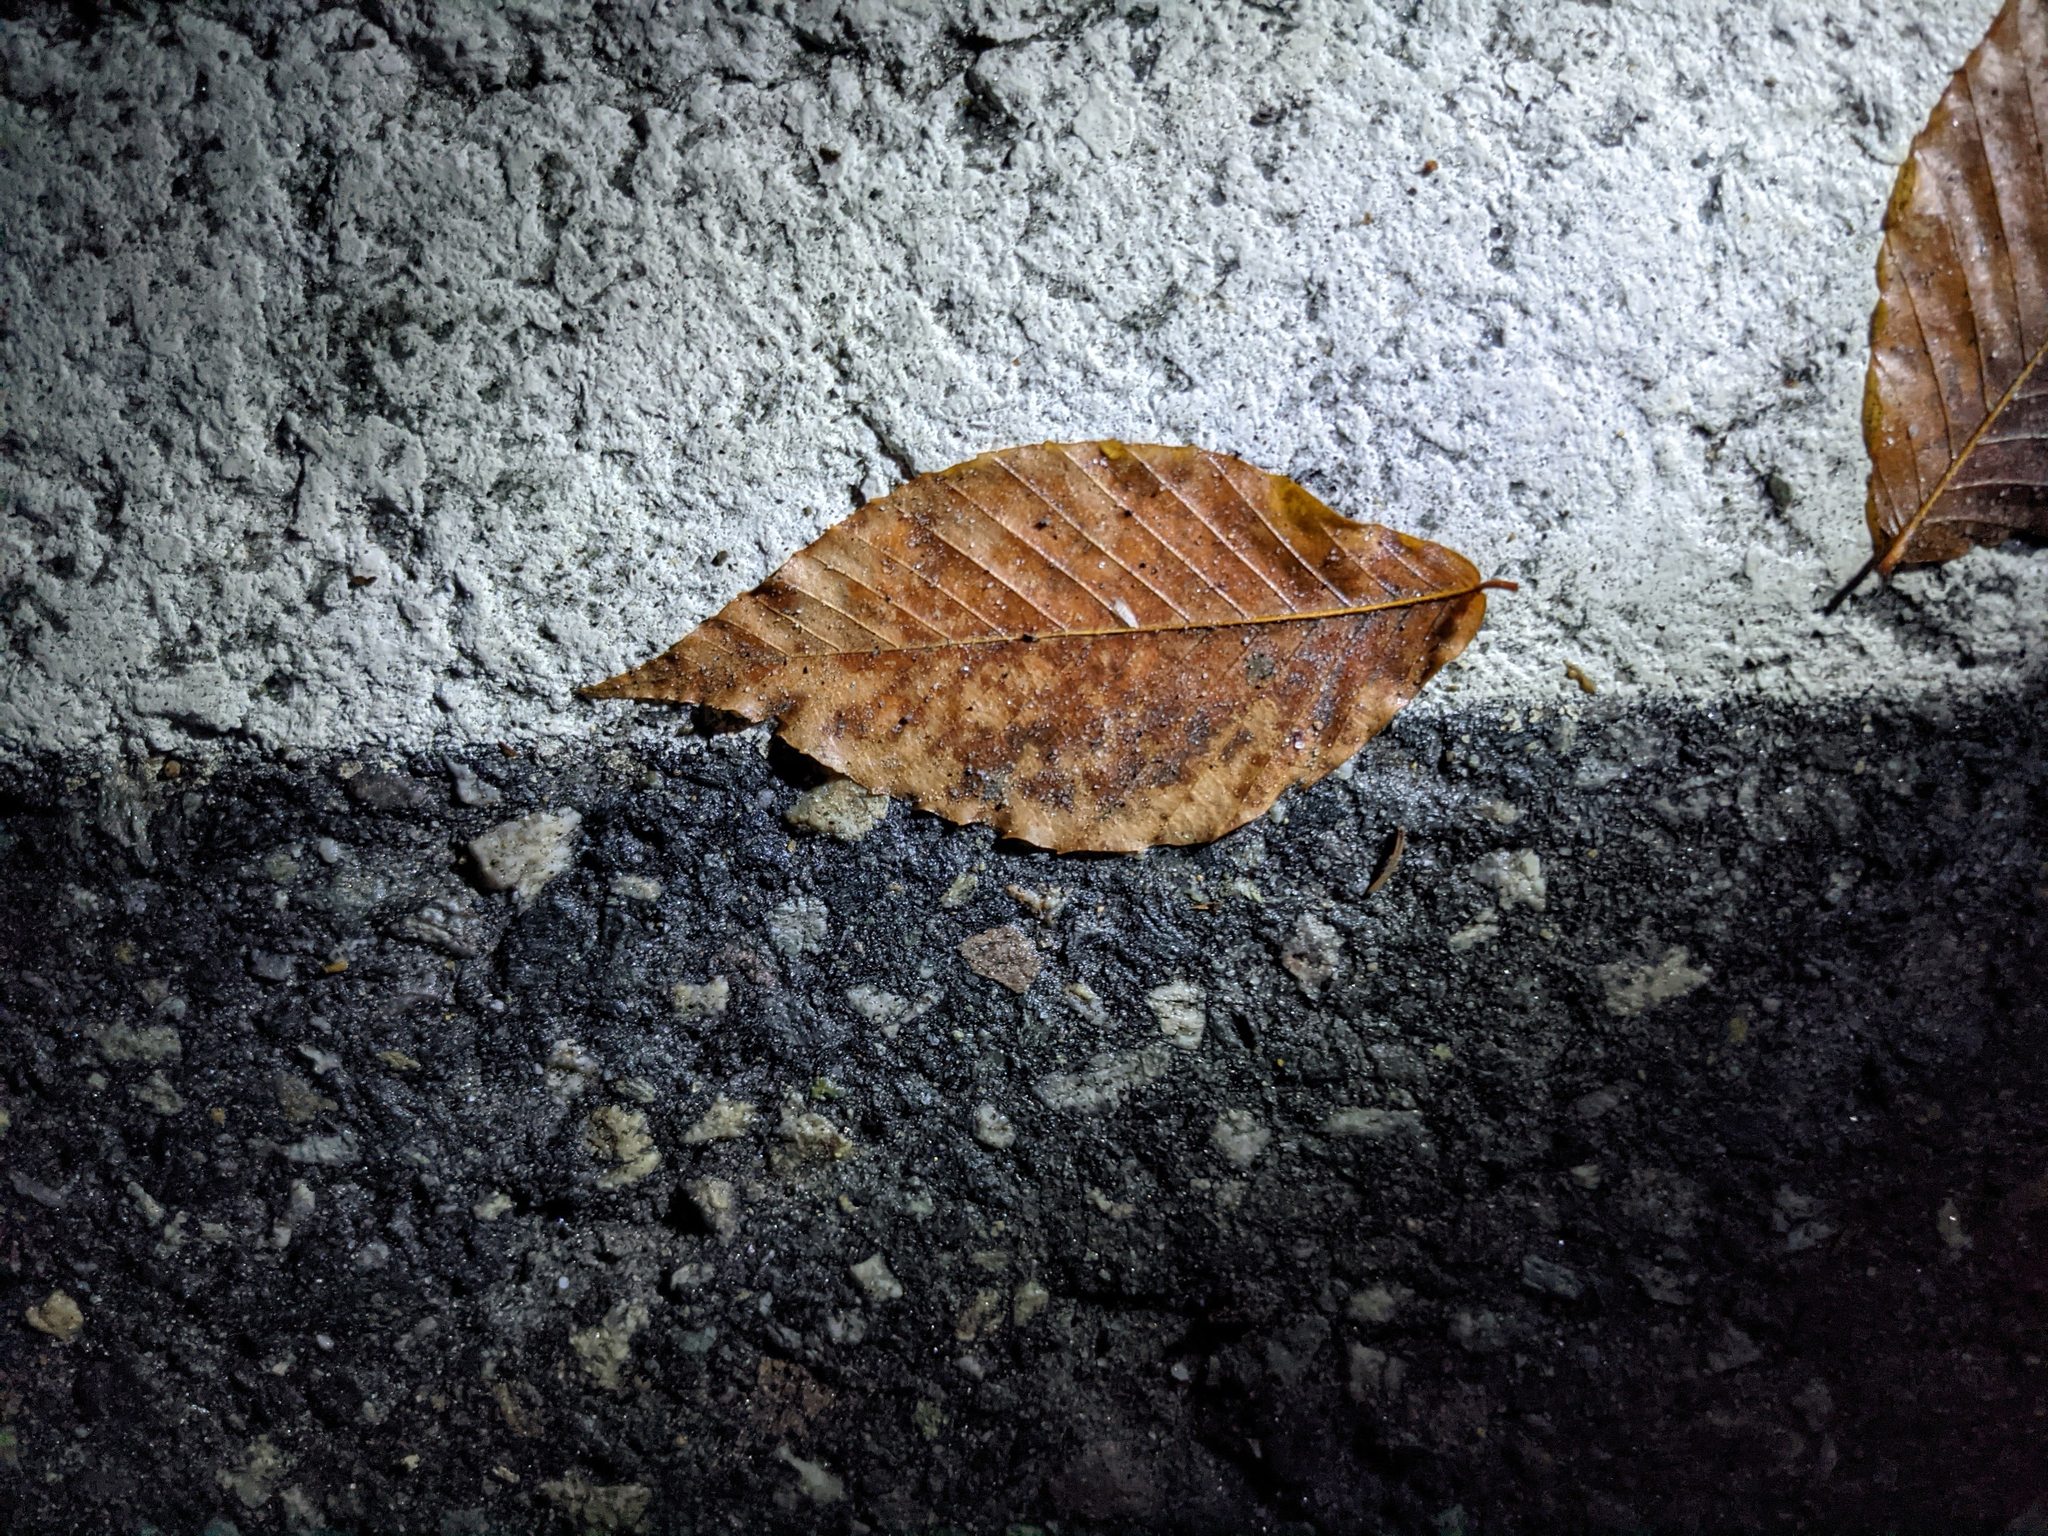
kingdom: Plantae
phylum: Tracheophyta
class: Magnoliopsida
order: Fagales
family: Fagaceae
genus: Fagus
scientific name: Fagus grandifolia
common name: American beech
